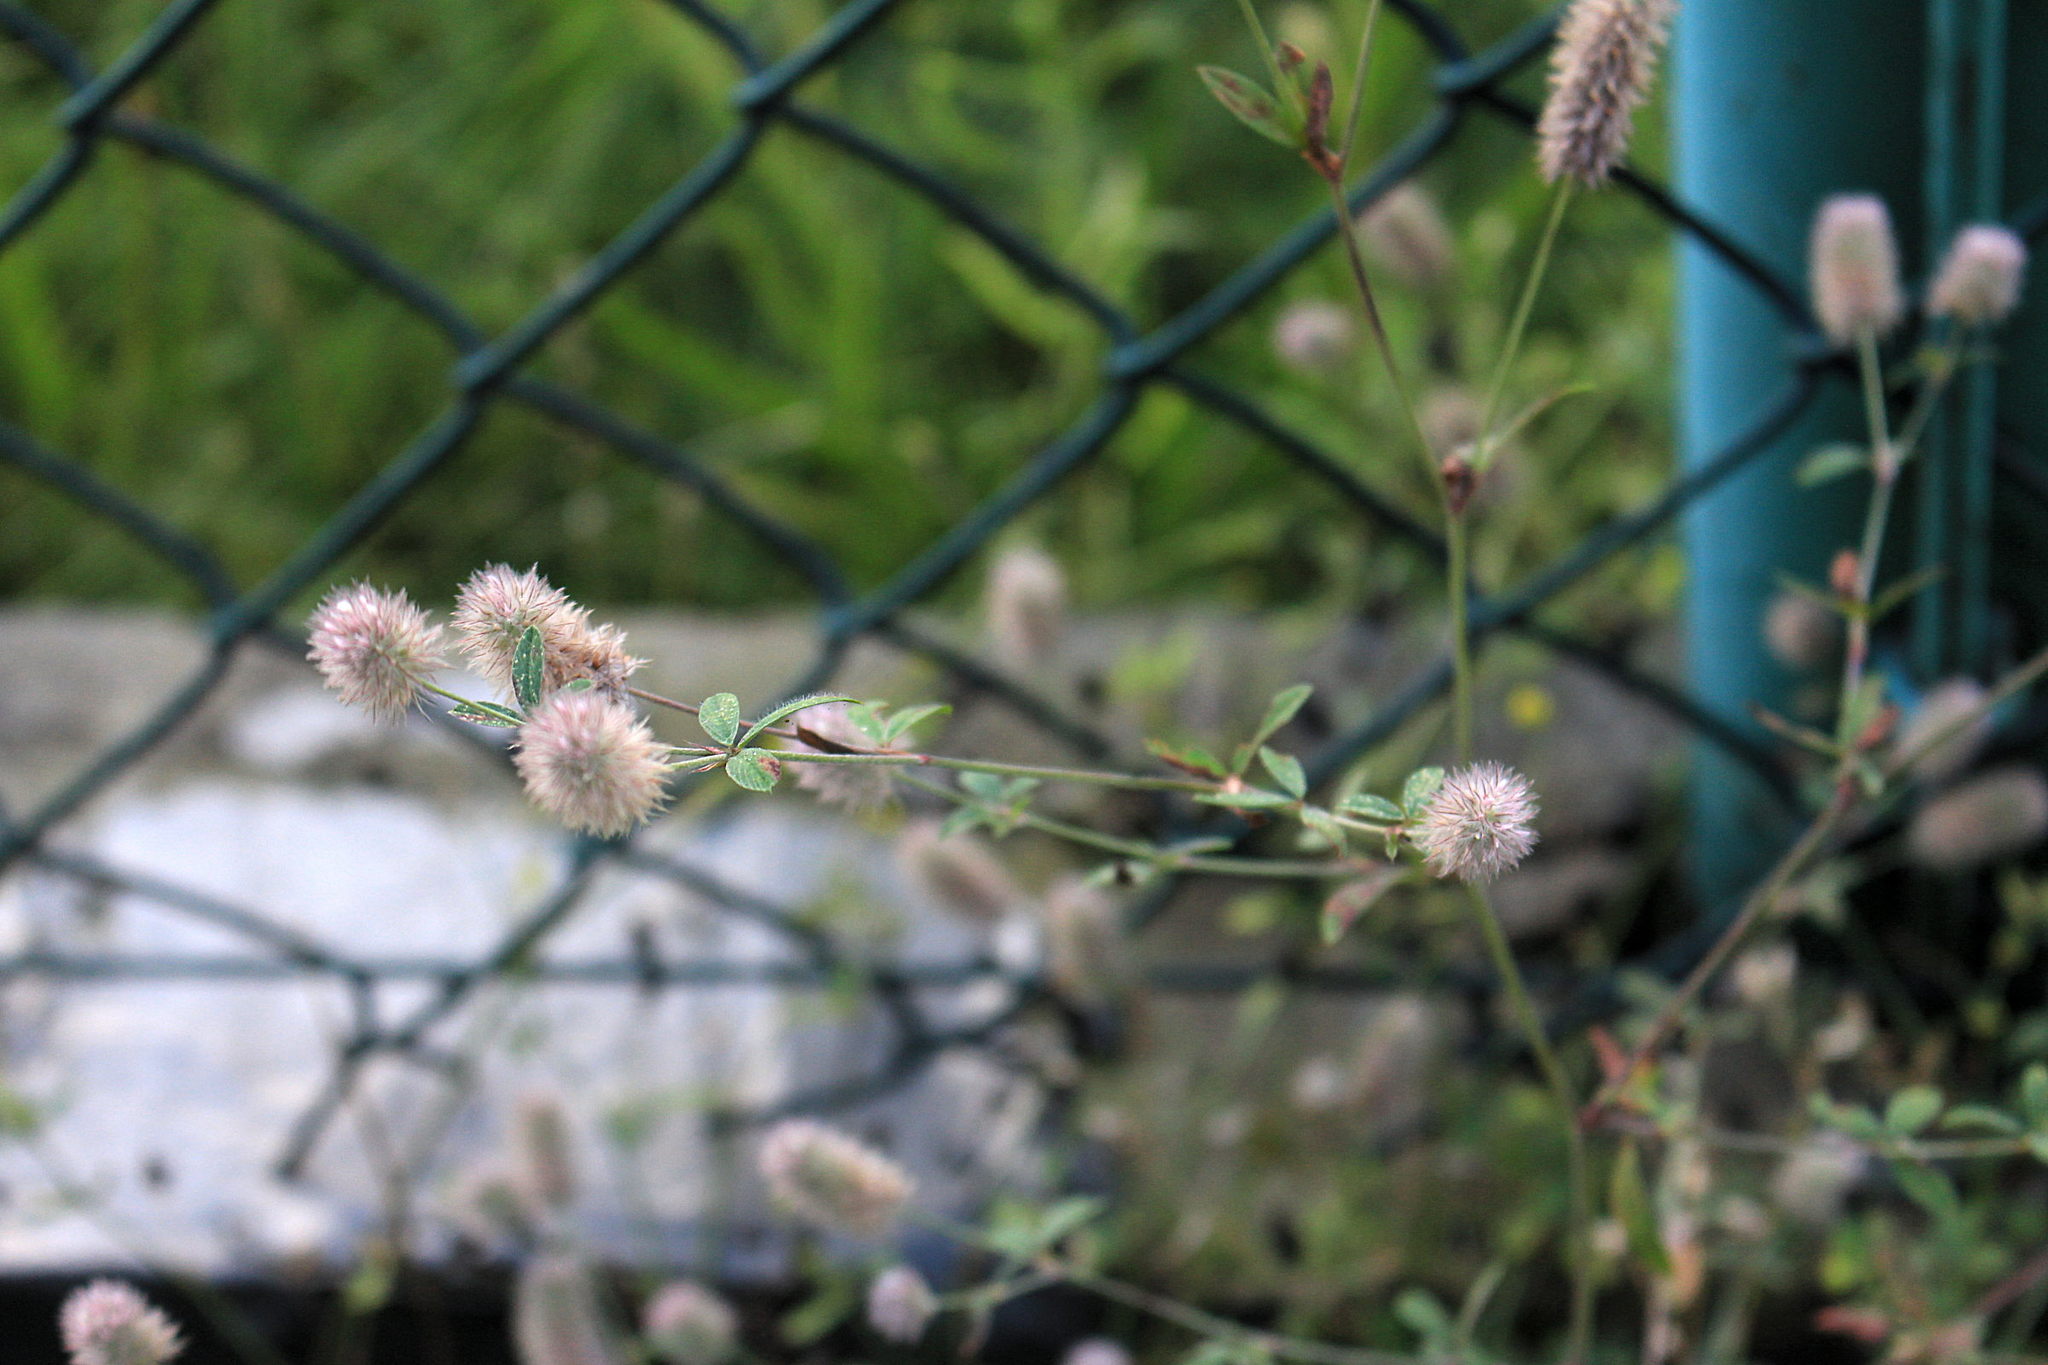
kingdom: Plantae
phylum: Tracheophyta
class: Magnoliopsida
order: Fabales
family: Fabaceae
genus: Trifolium
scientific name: Trifolium arvense
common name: Hare's-foot clover
